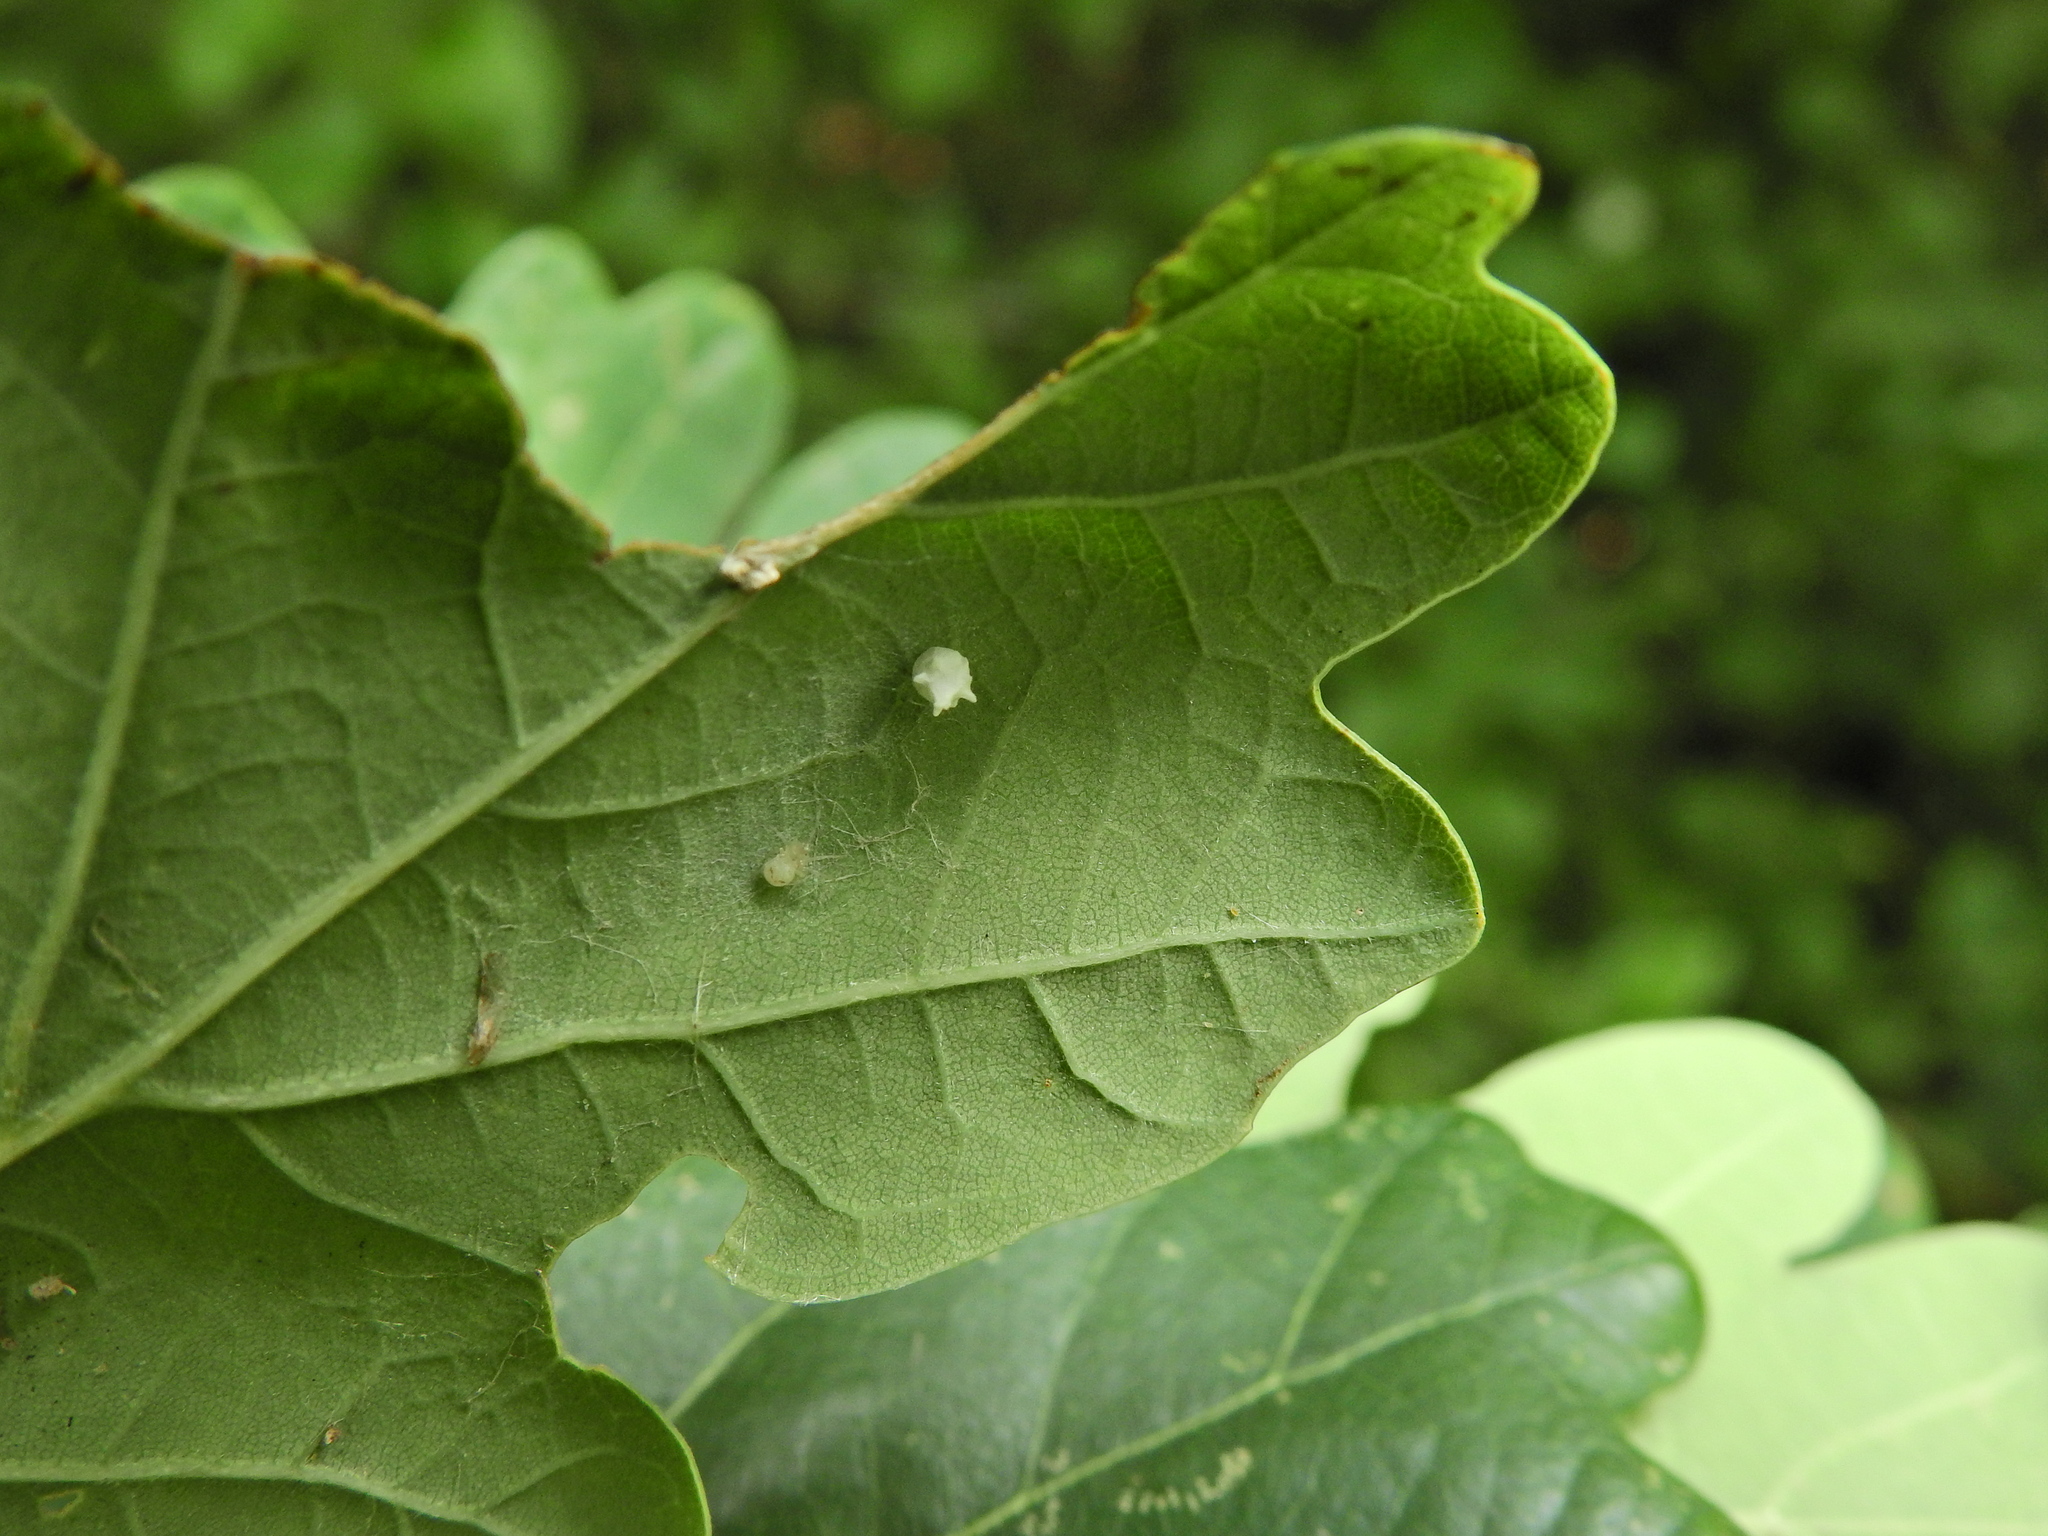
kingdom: Animalia
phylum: Arthropoda
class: Arachnida
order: Araneae
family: Theridiidae
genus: Paidiscura
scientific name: Paidiscura pallens
